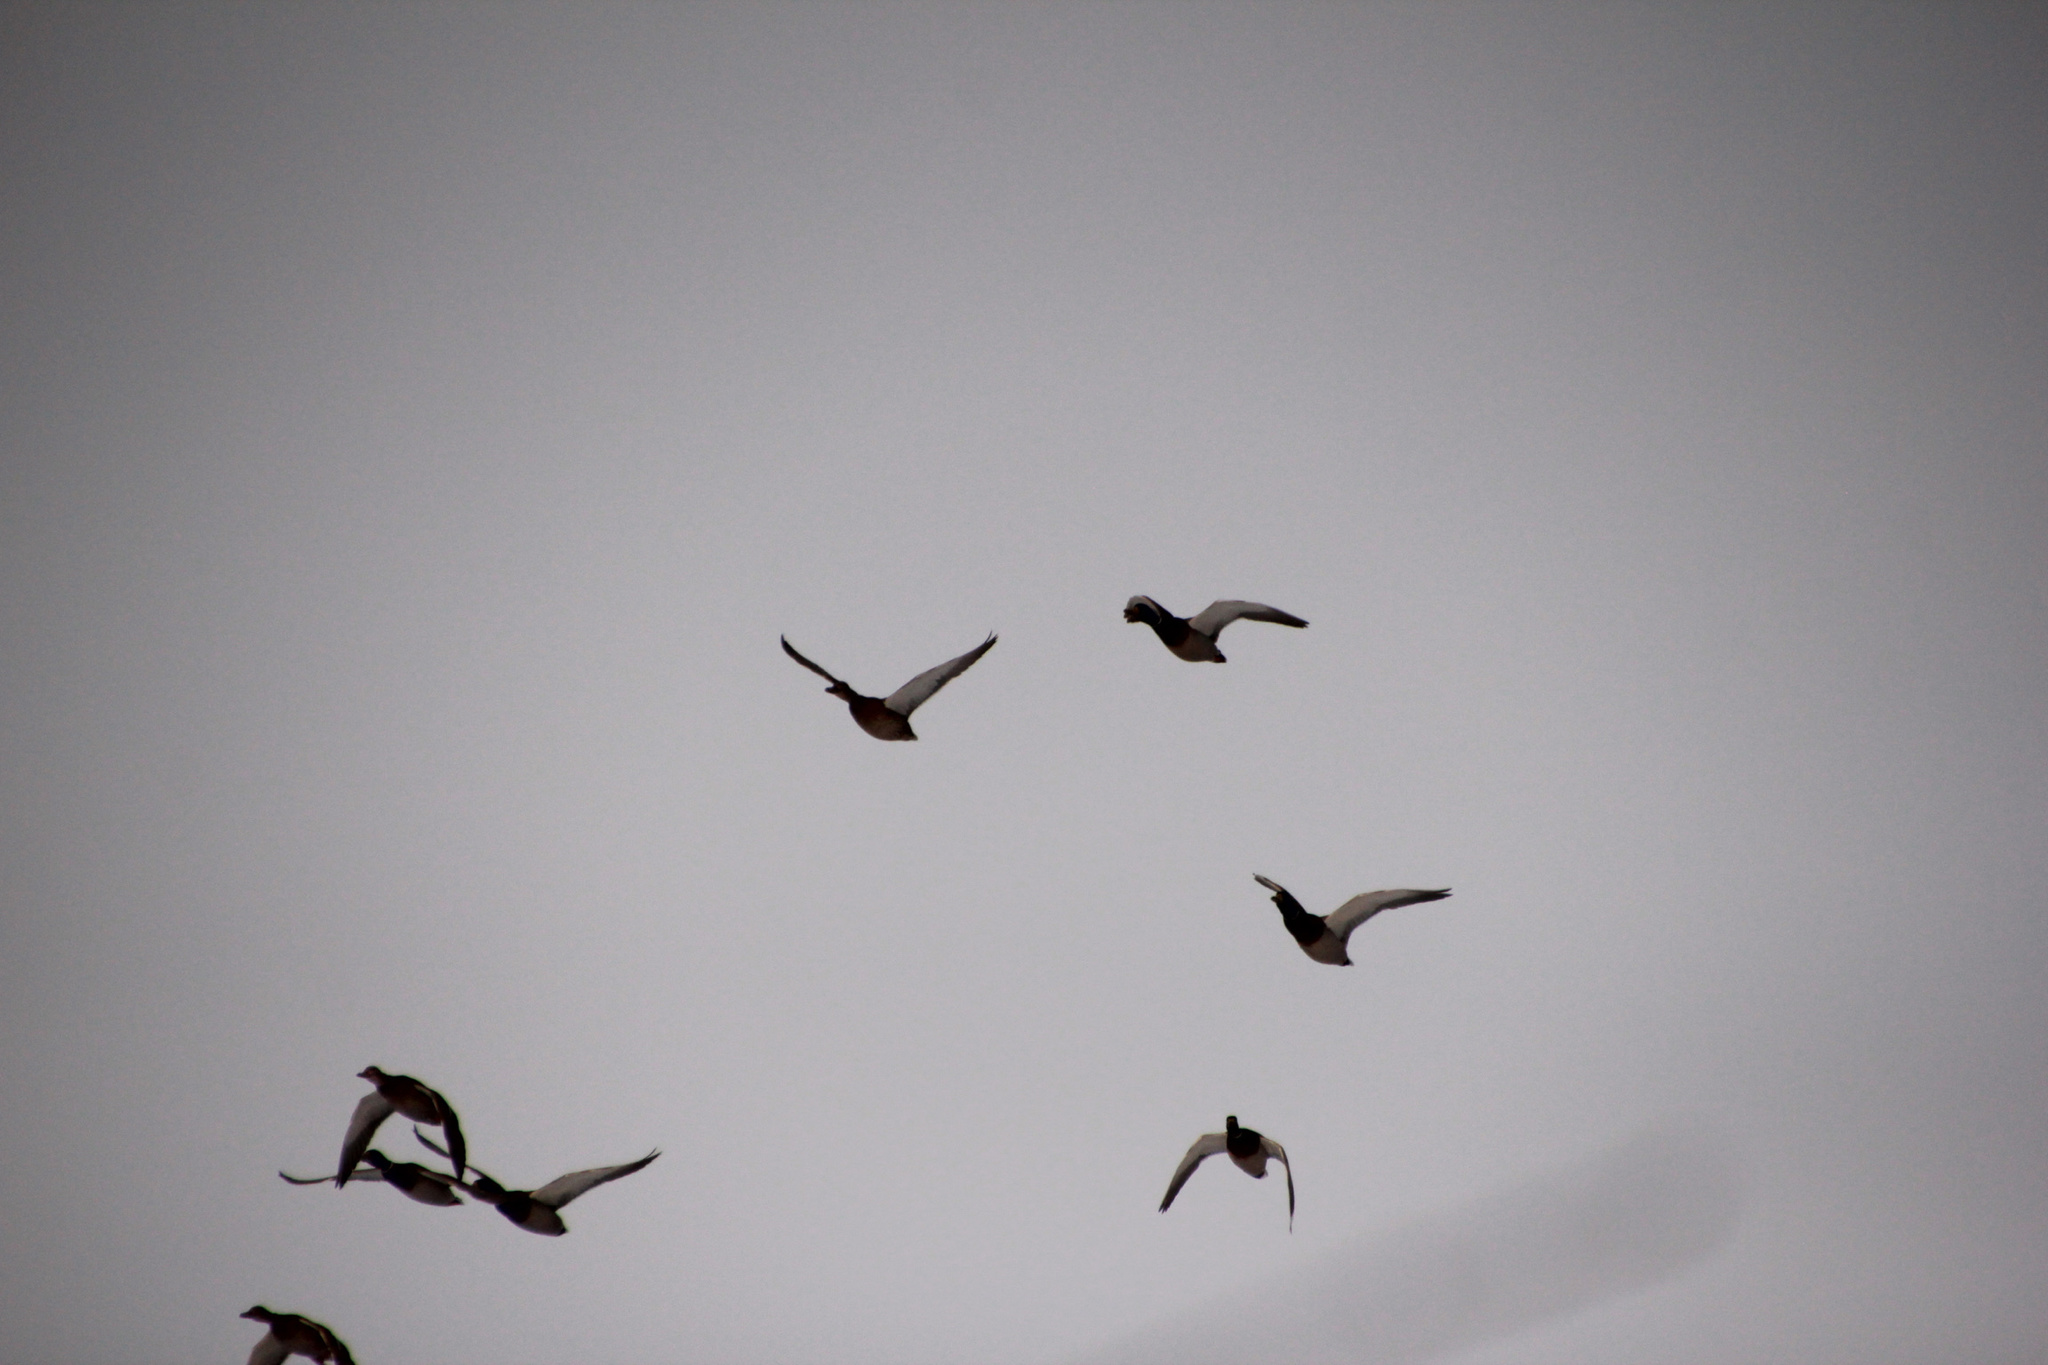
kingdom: Animalia
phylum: Chordata
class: Aves
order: Anseriformes
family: Anatidae
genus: Anas
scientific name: Anas platyrhynchos
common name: Mallard
